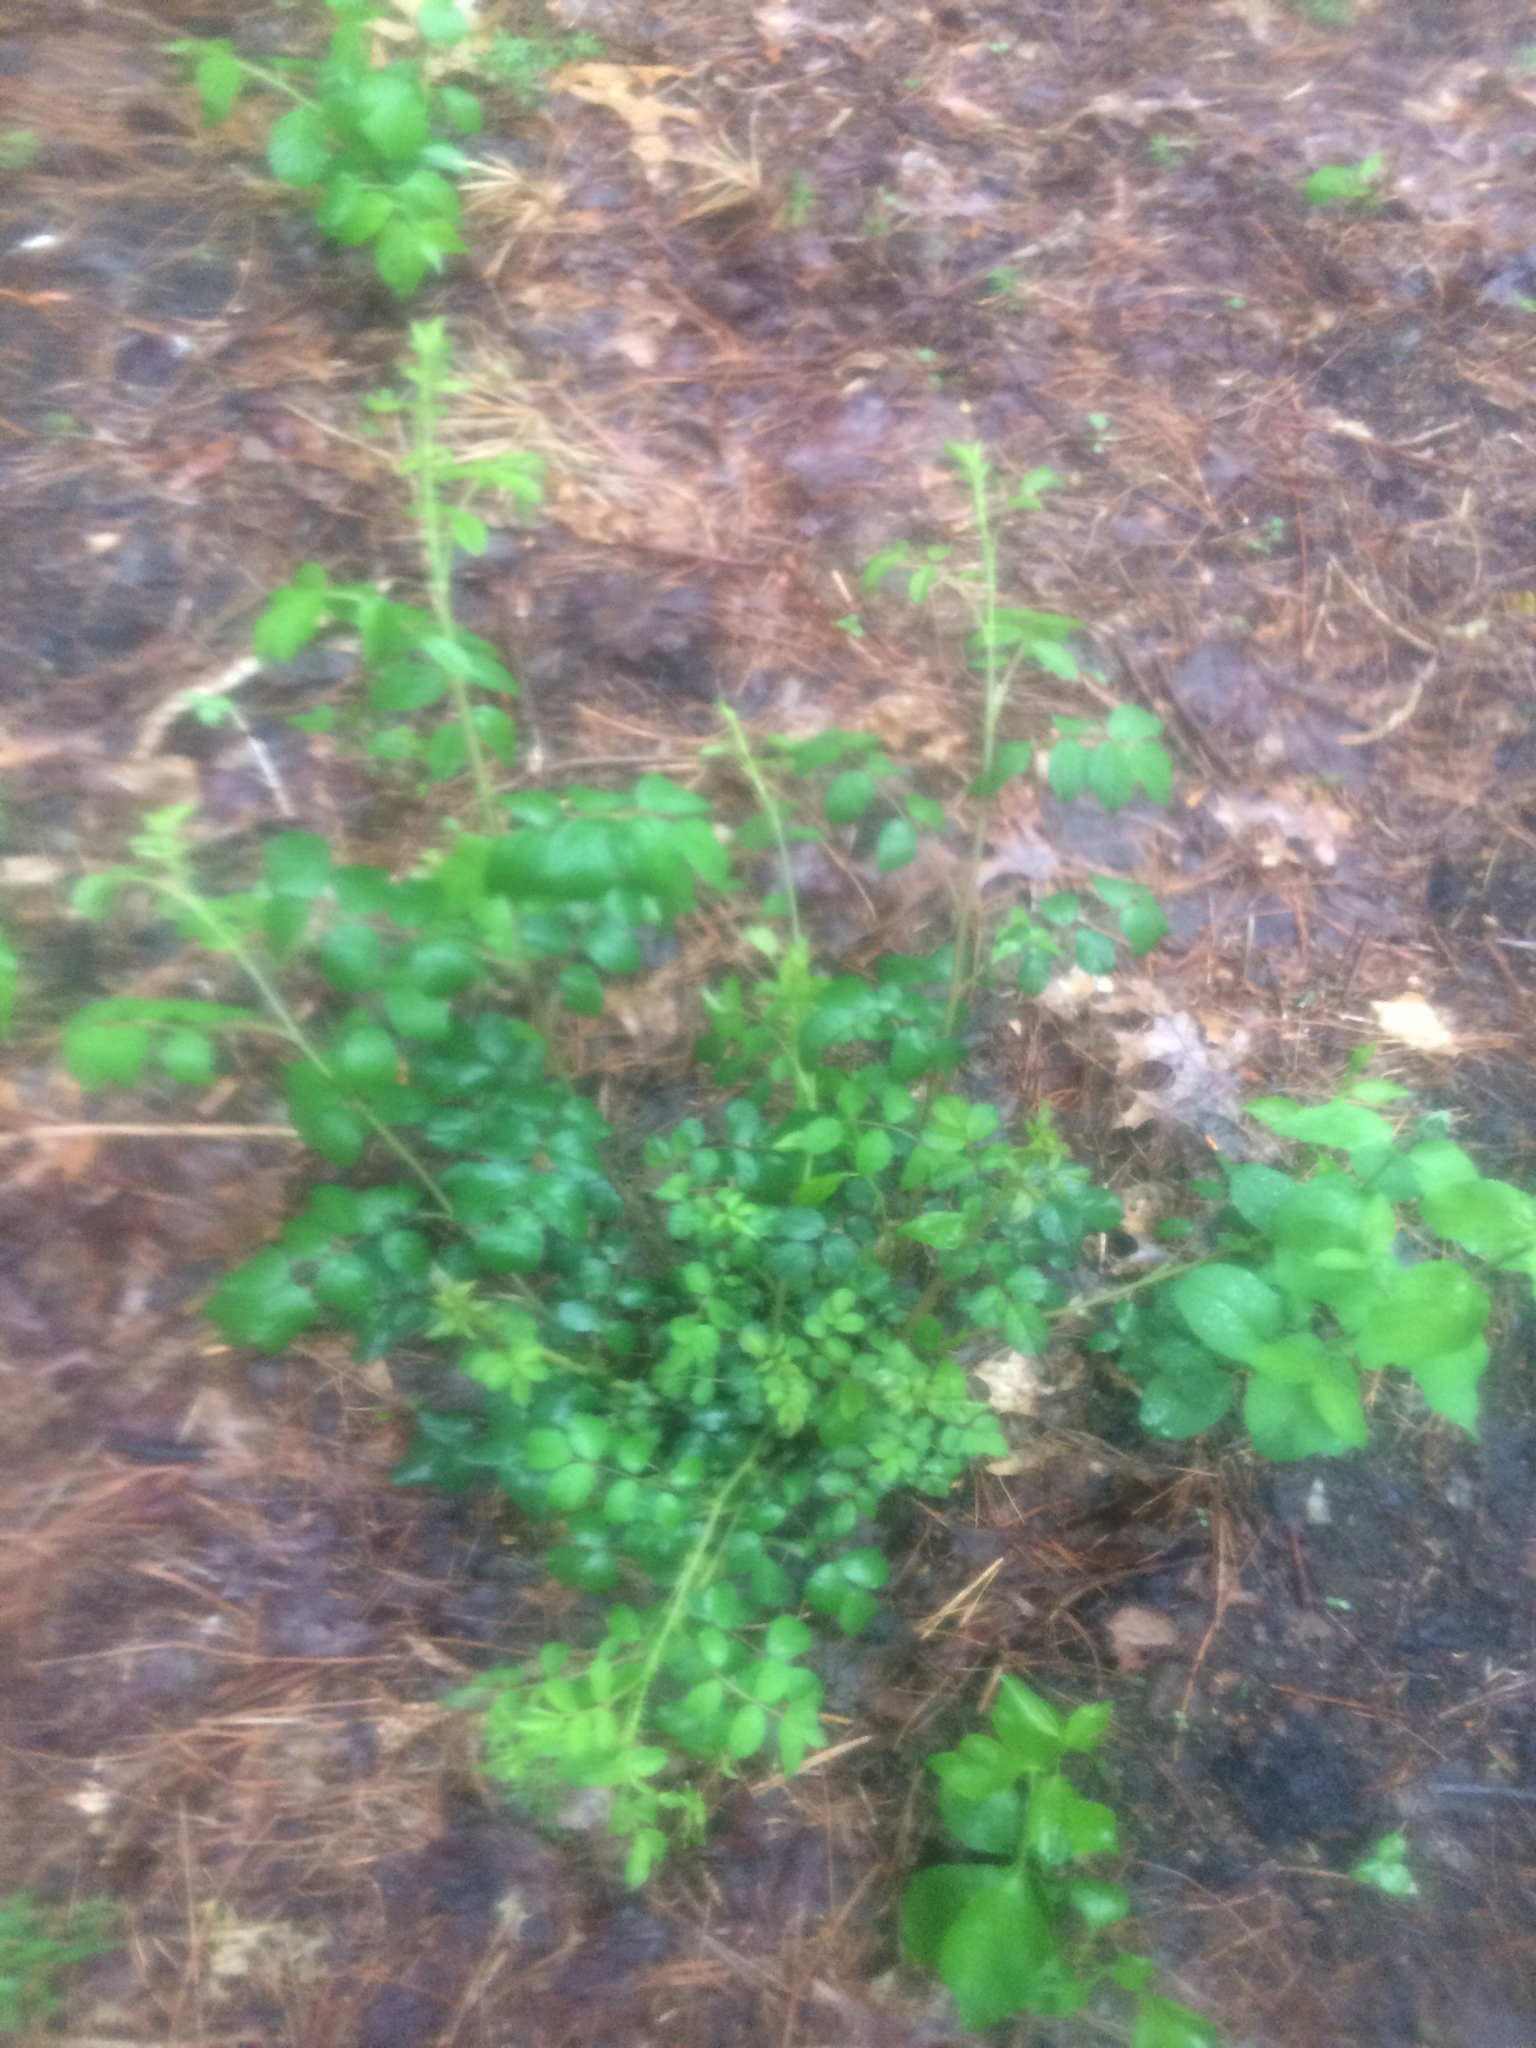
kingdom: Plantae
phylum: Tracheophyta
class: Magnoliopsida
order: Rosales
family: Rosaceae
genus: Rosa
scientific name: Rosa multiflora
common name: Multiflora rose
